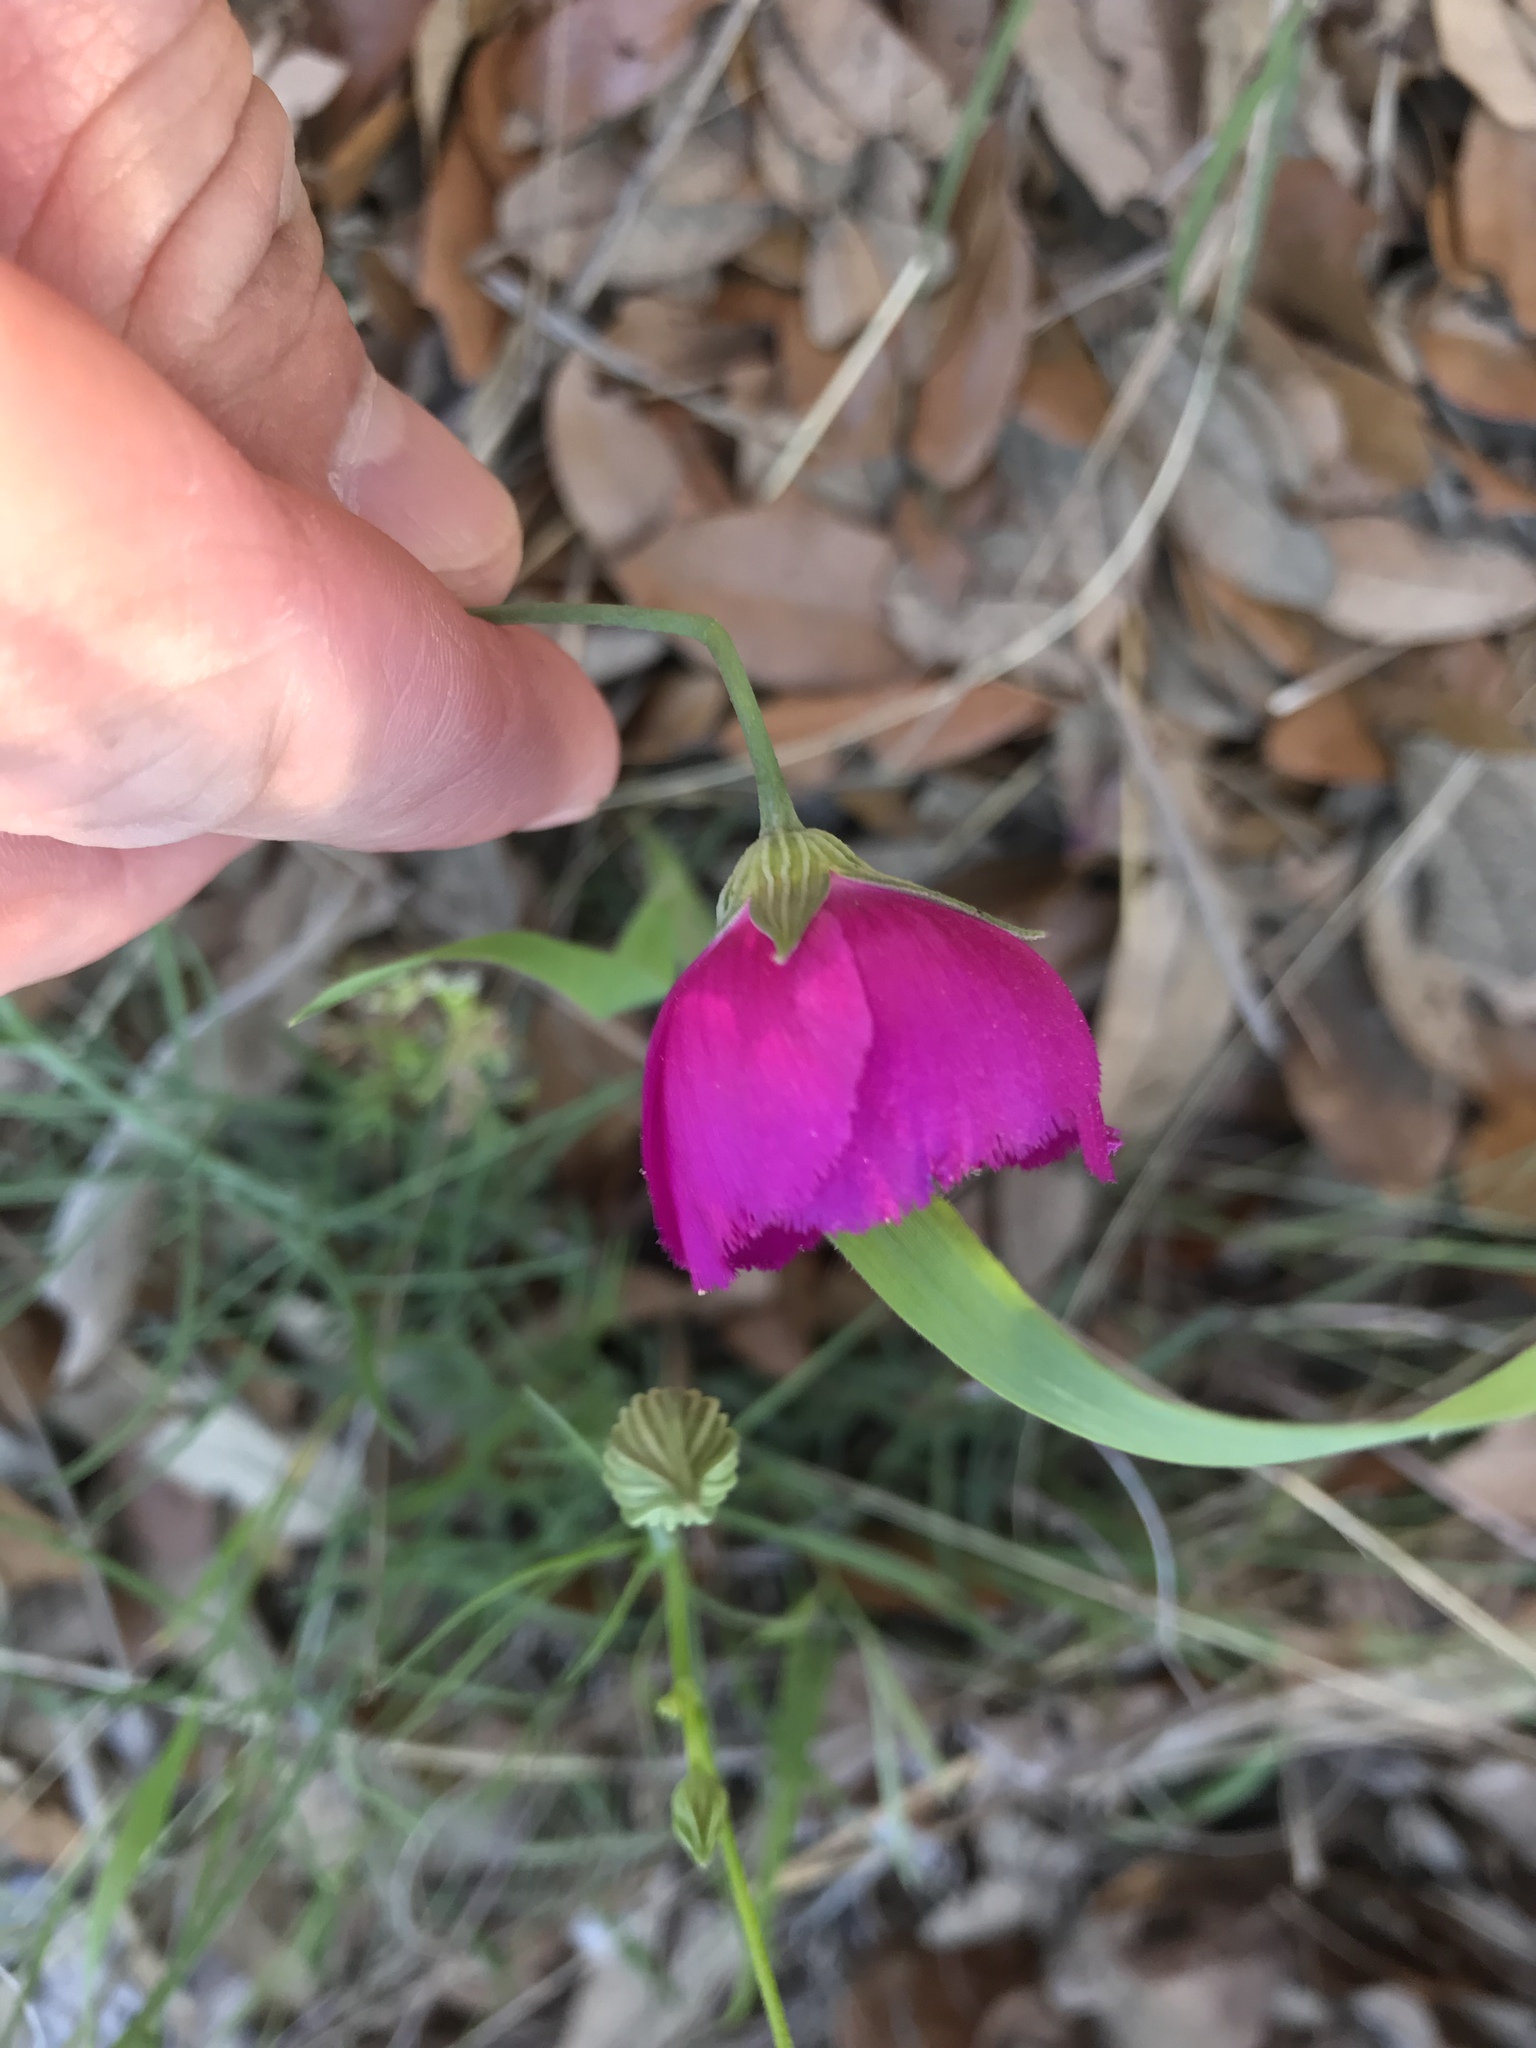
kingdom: Plantae
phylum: Tracheophyta
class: Magnoliopsida
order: Malvales
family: Malvaceae
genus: Callirhoe
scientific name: Callirhoe pedata
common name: Finger poppy-mallow
